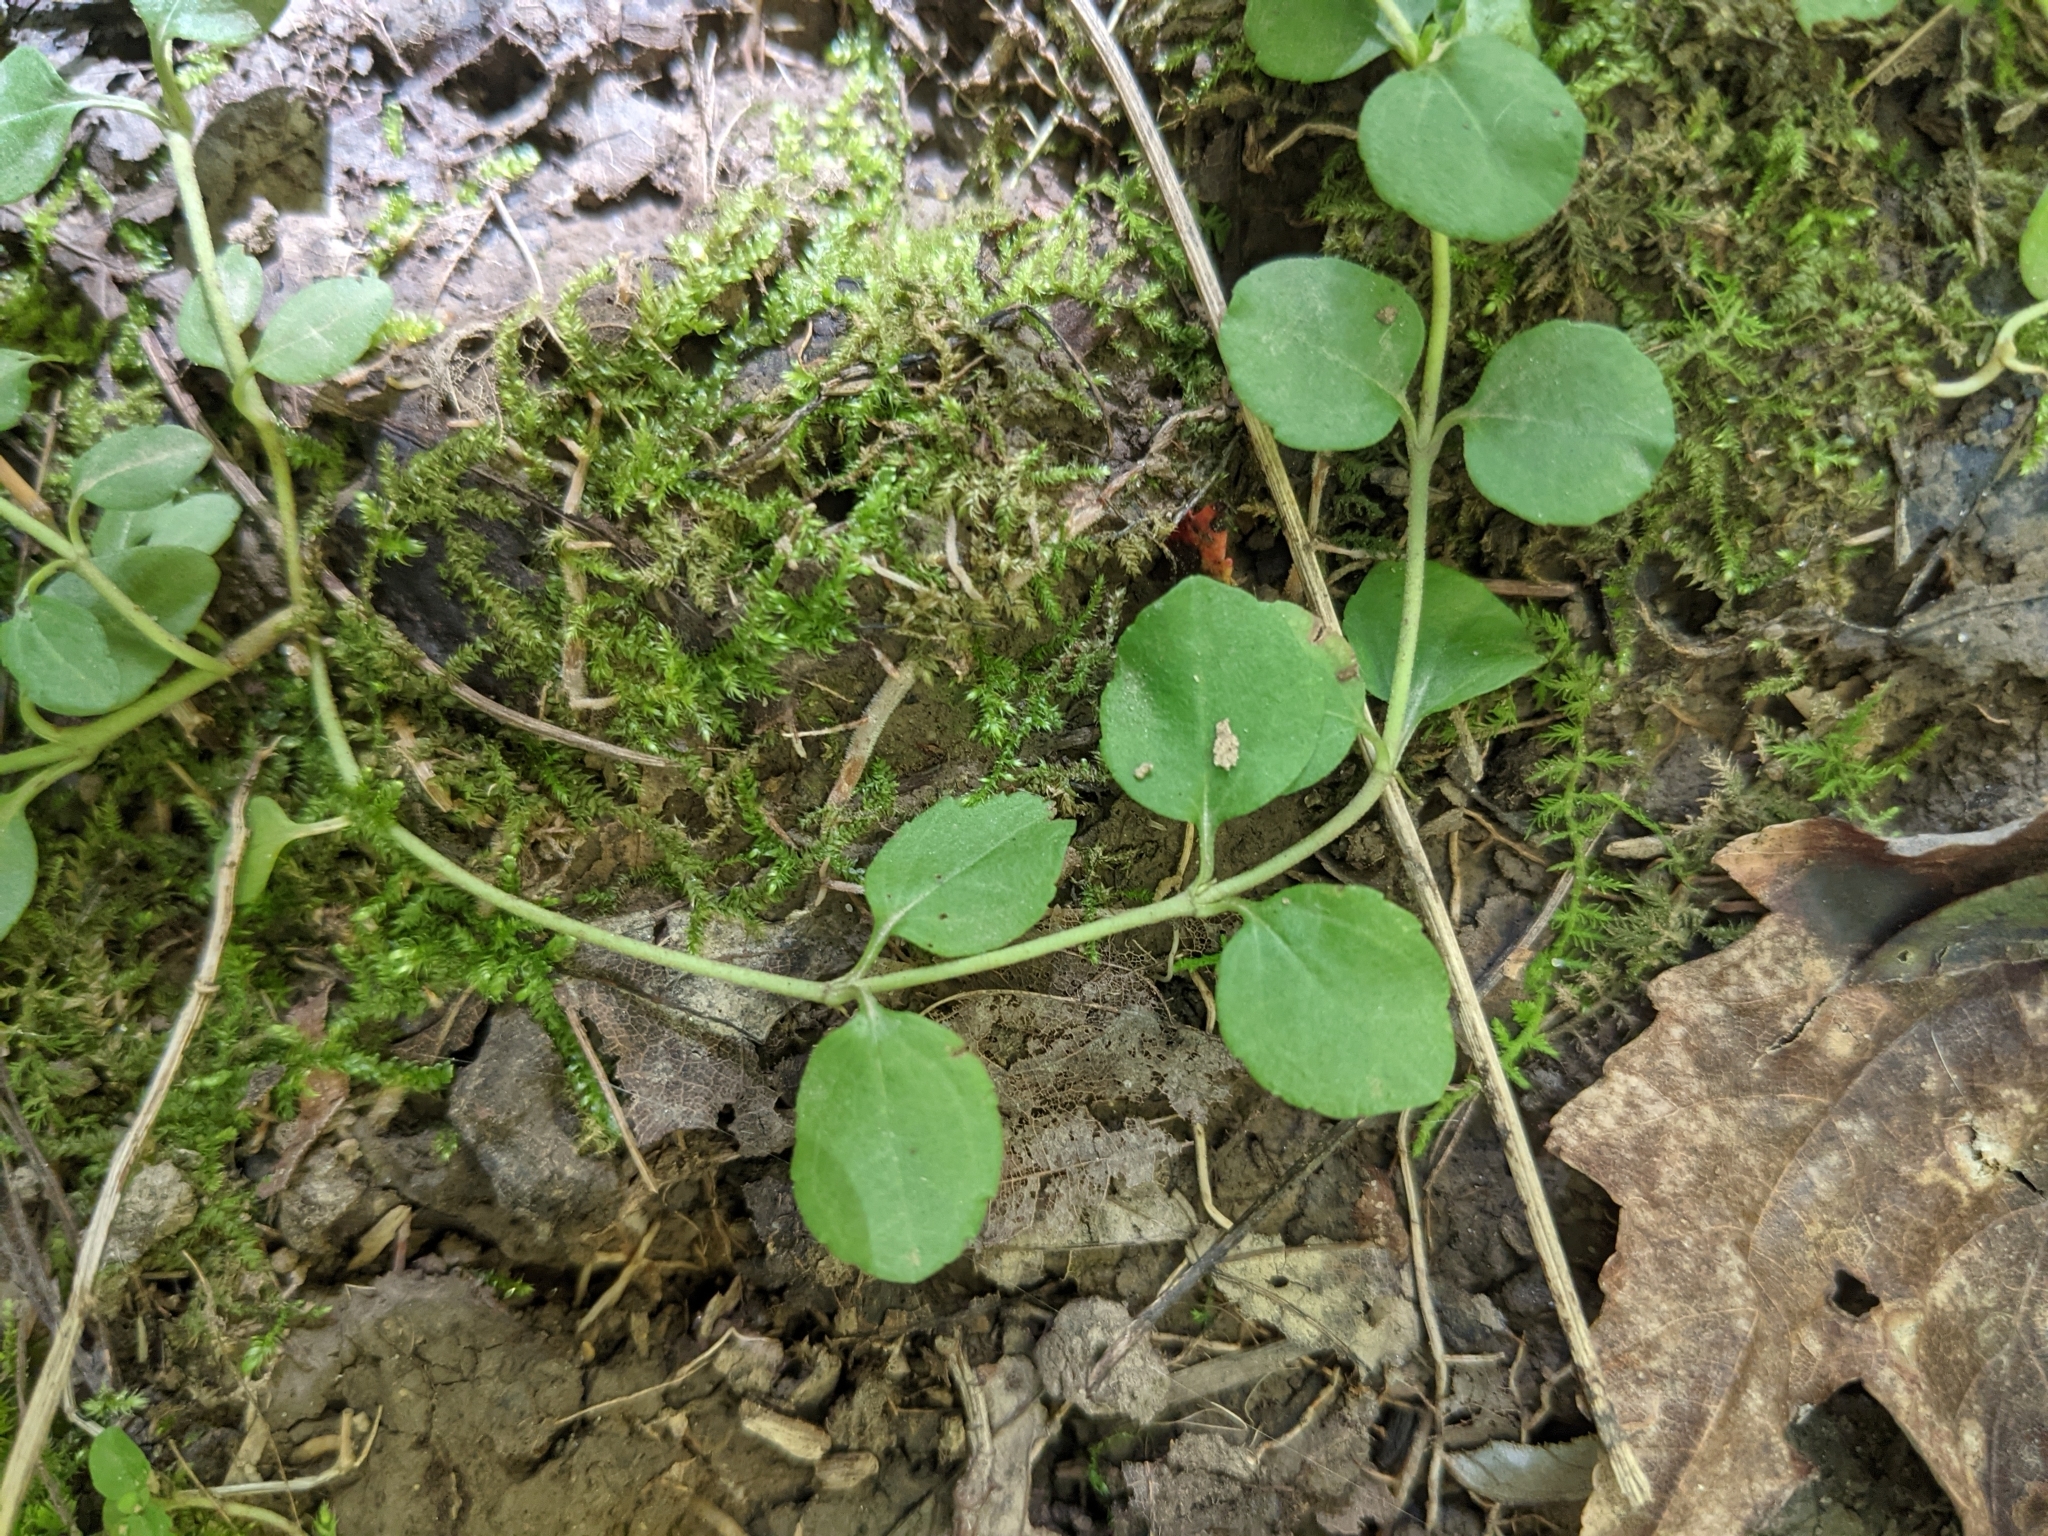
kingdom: Plantae
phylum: Tracheophyta
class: Magnoliopsida
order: Ericales
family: Primulaceae
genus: Lysimachia
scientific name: Lysimachia nummularia
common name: Moneywort
